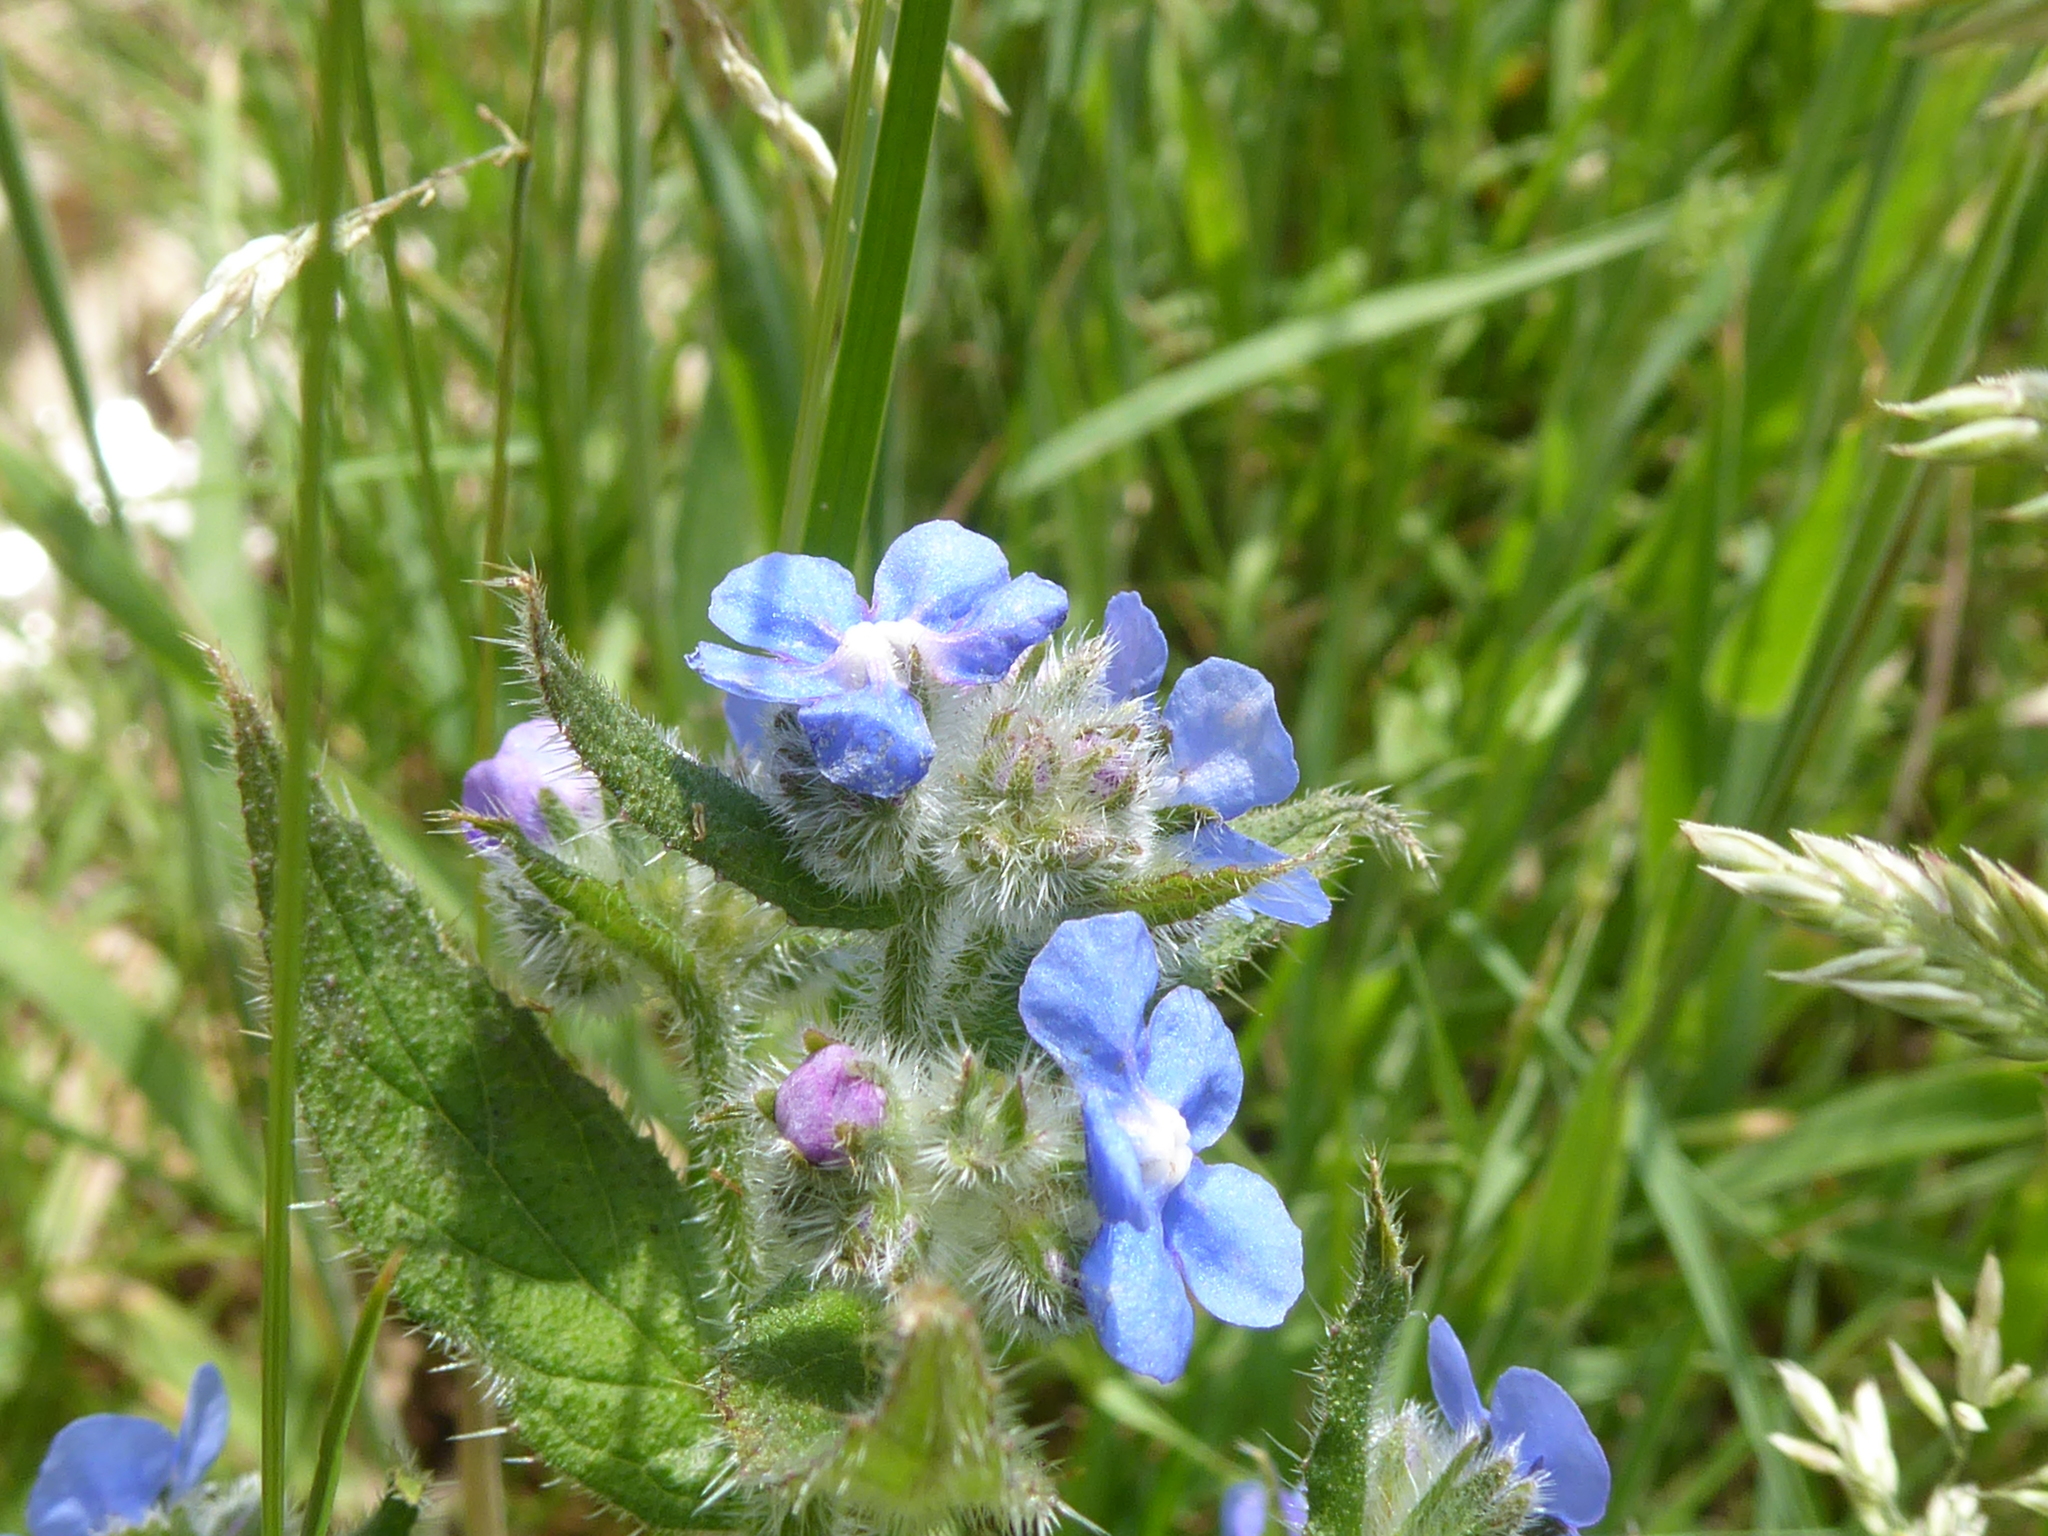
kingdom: Plantae
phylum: Tracheophyta
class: Magnoliopsida
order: Boraginales
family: Boraginaceae
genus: Pentaglottis
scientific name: Pentaglottis sempervirens
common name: Green alkanet
